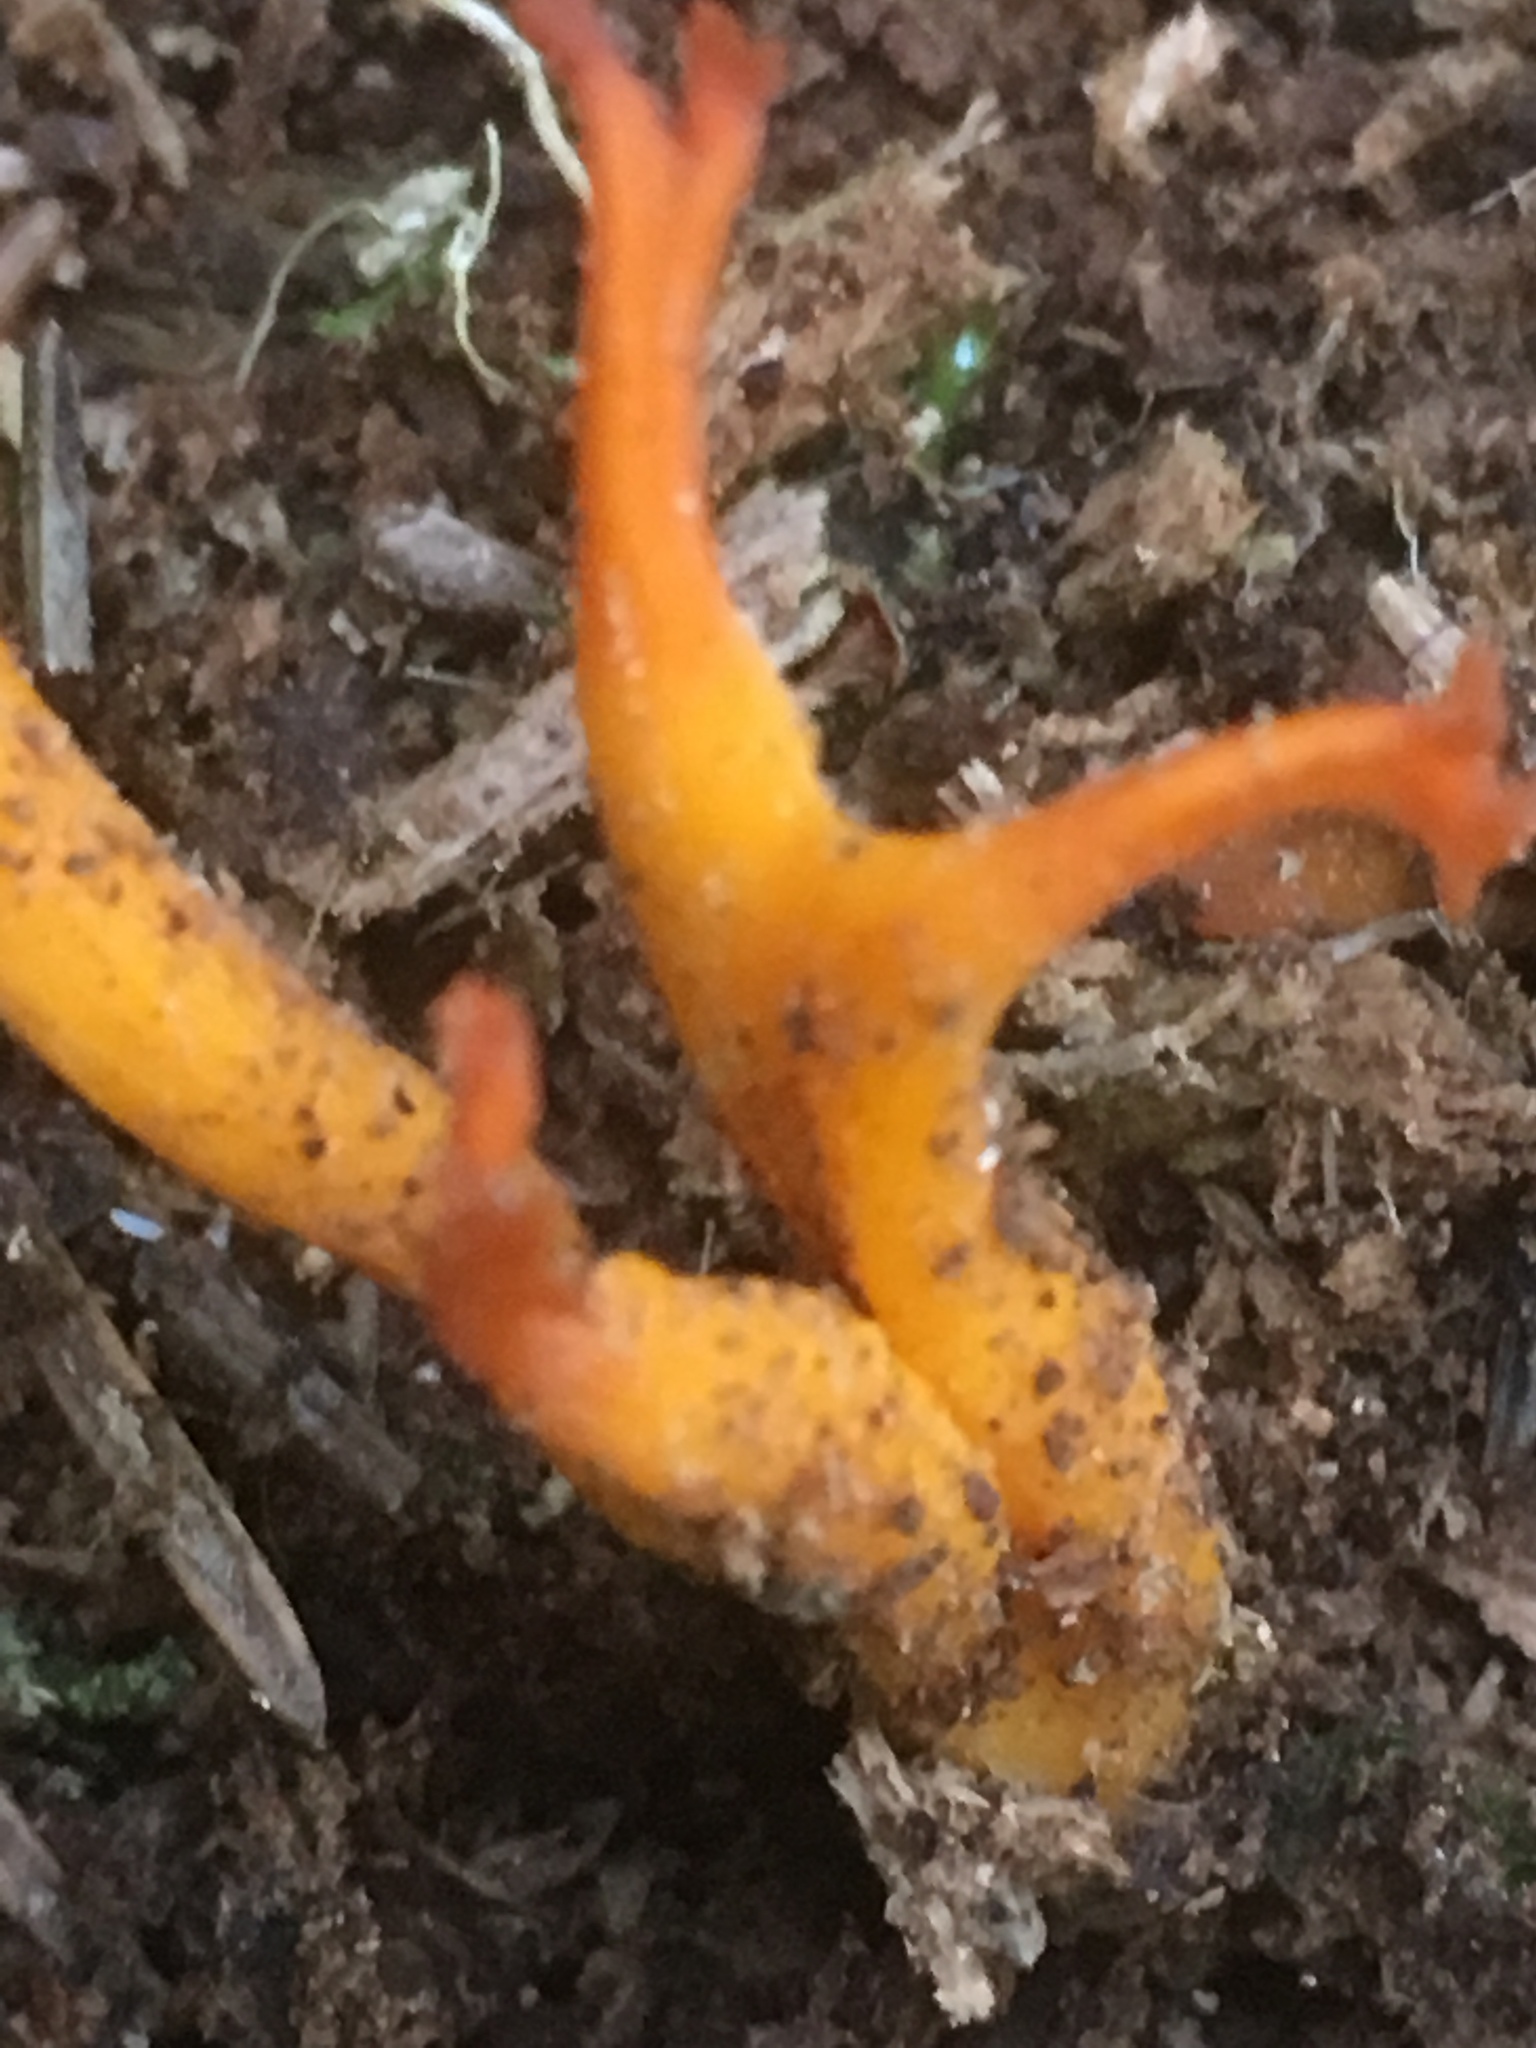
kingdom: Fungi
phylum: Basidiomycota
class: Dacrymycetes
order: Dacrymycetales
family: Dacrymycetaceae
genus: Calocera
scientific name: Calocera viscosa
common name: Yellow stagshorn
